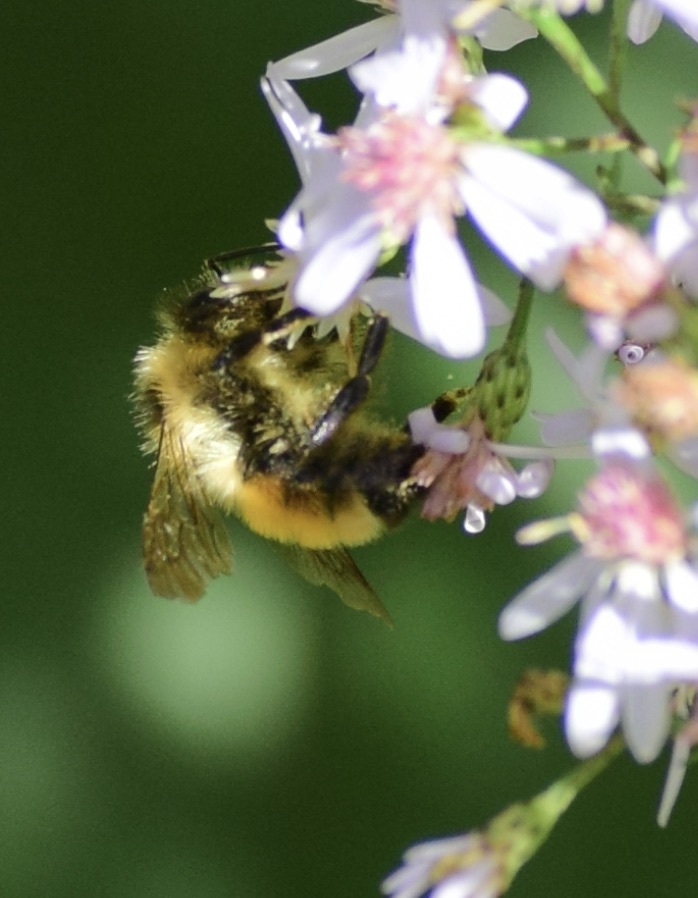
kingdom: Animalia
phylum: Arthropoda
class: Insecta
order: Hymenoptera
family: Apidae
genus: Bombus
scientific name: Bombus ternarius
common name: Tri-colored bumble bee
